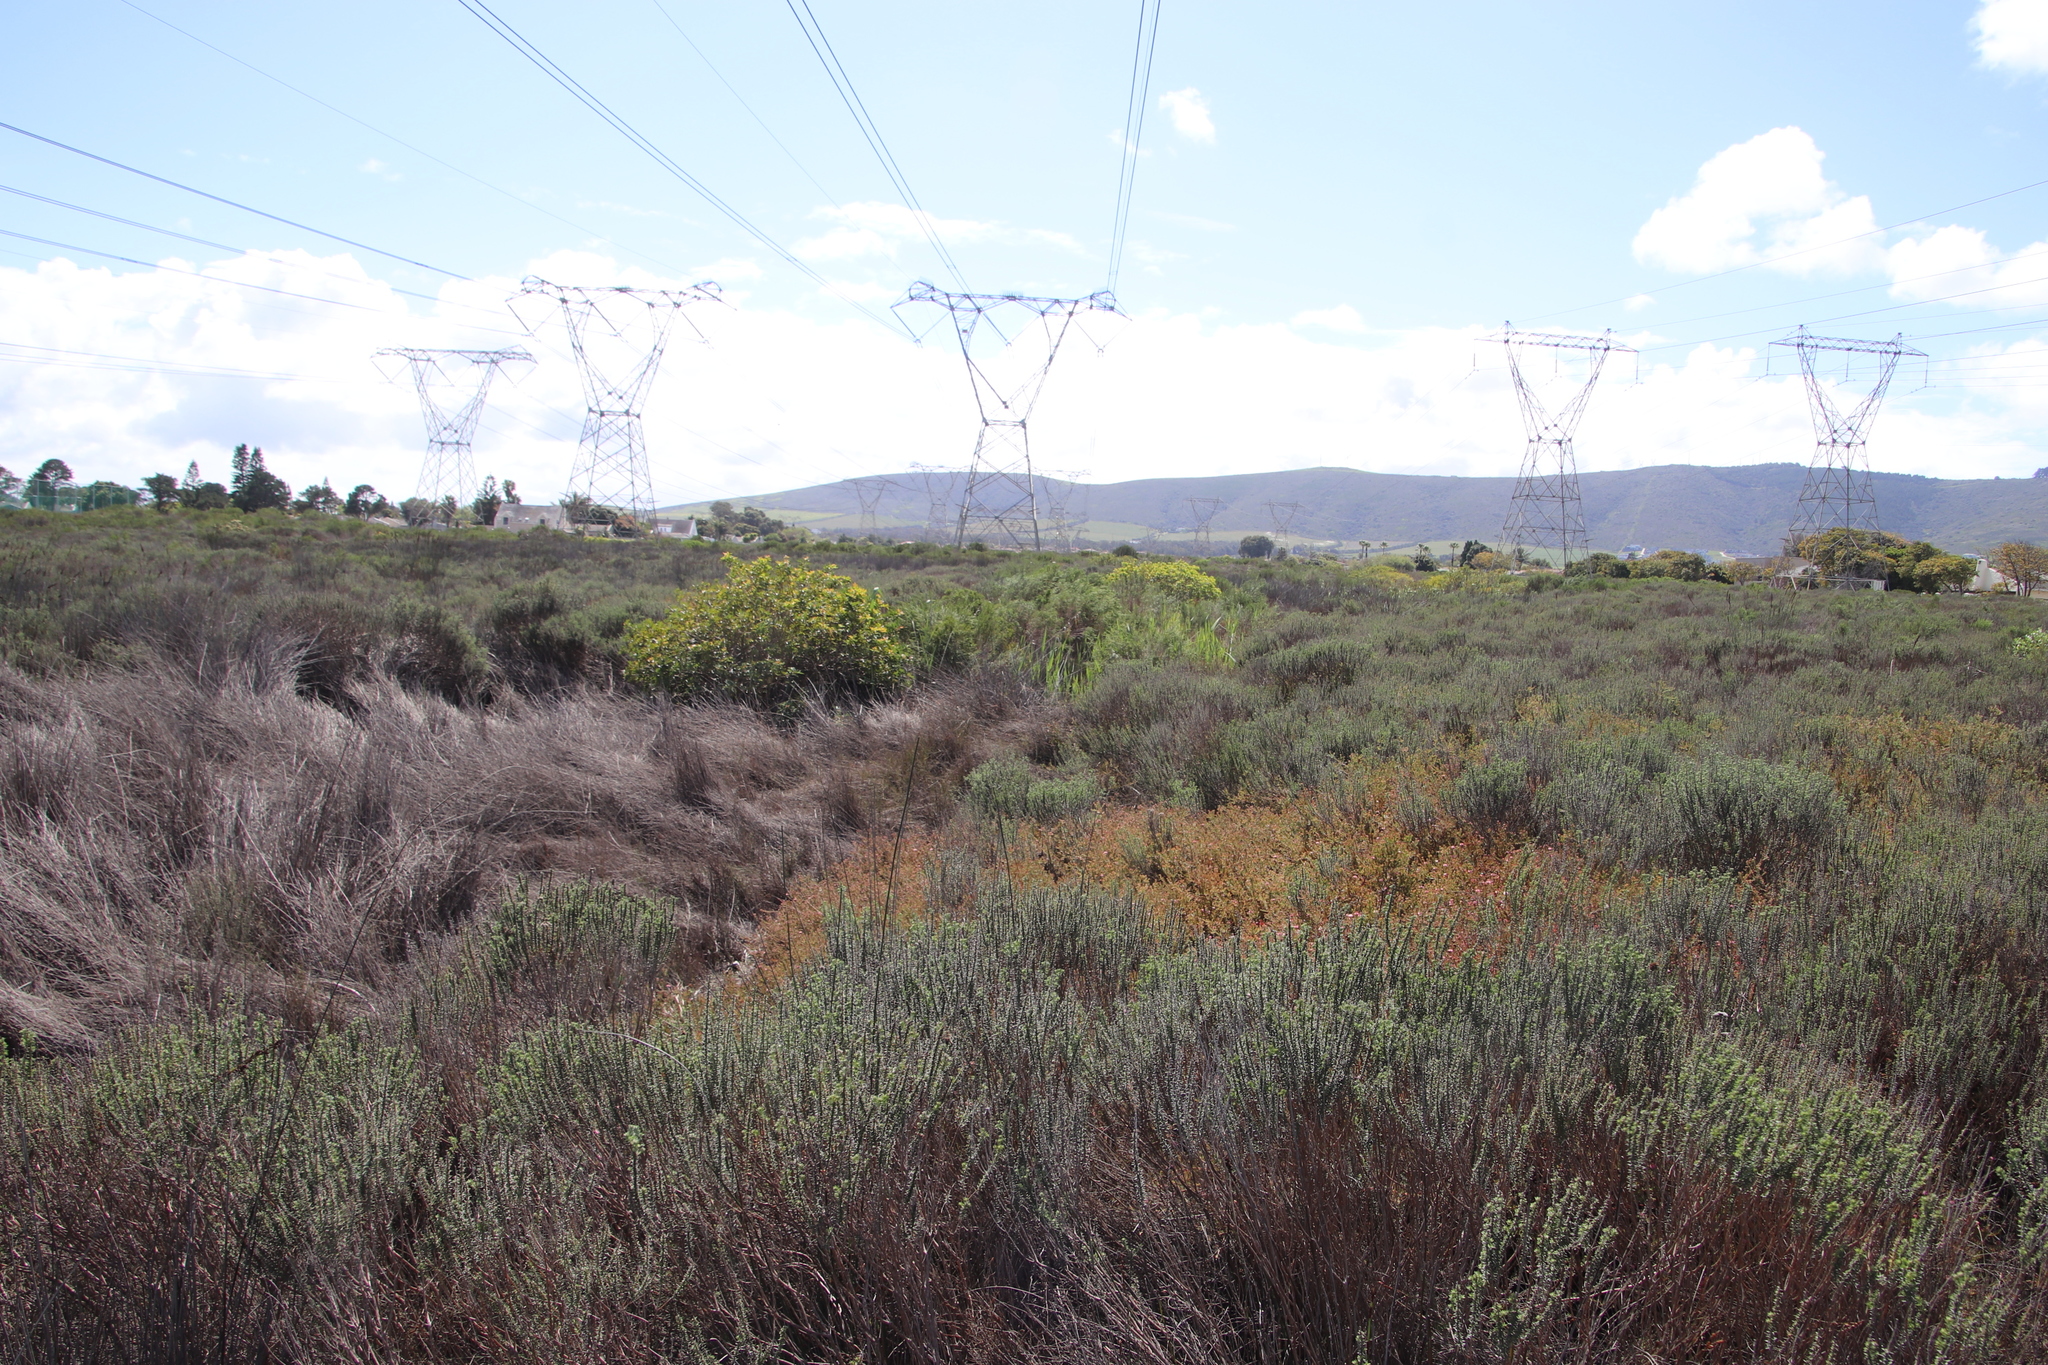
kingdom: Plantae
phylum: Tracheophyta
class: Magnoliopsida
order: Proteales
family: Proteaceae
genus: Diastella
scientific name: Diastella proteoides
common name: Flats silkypuff
